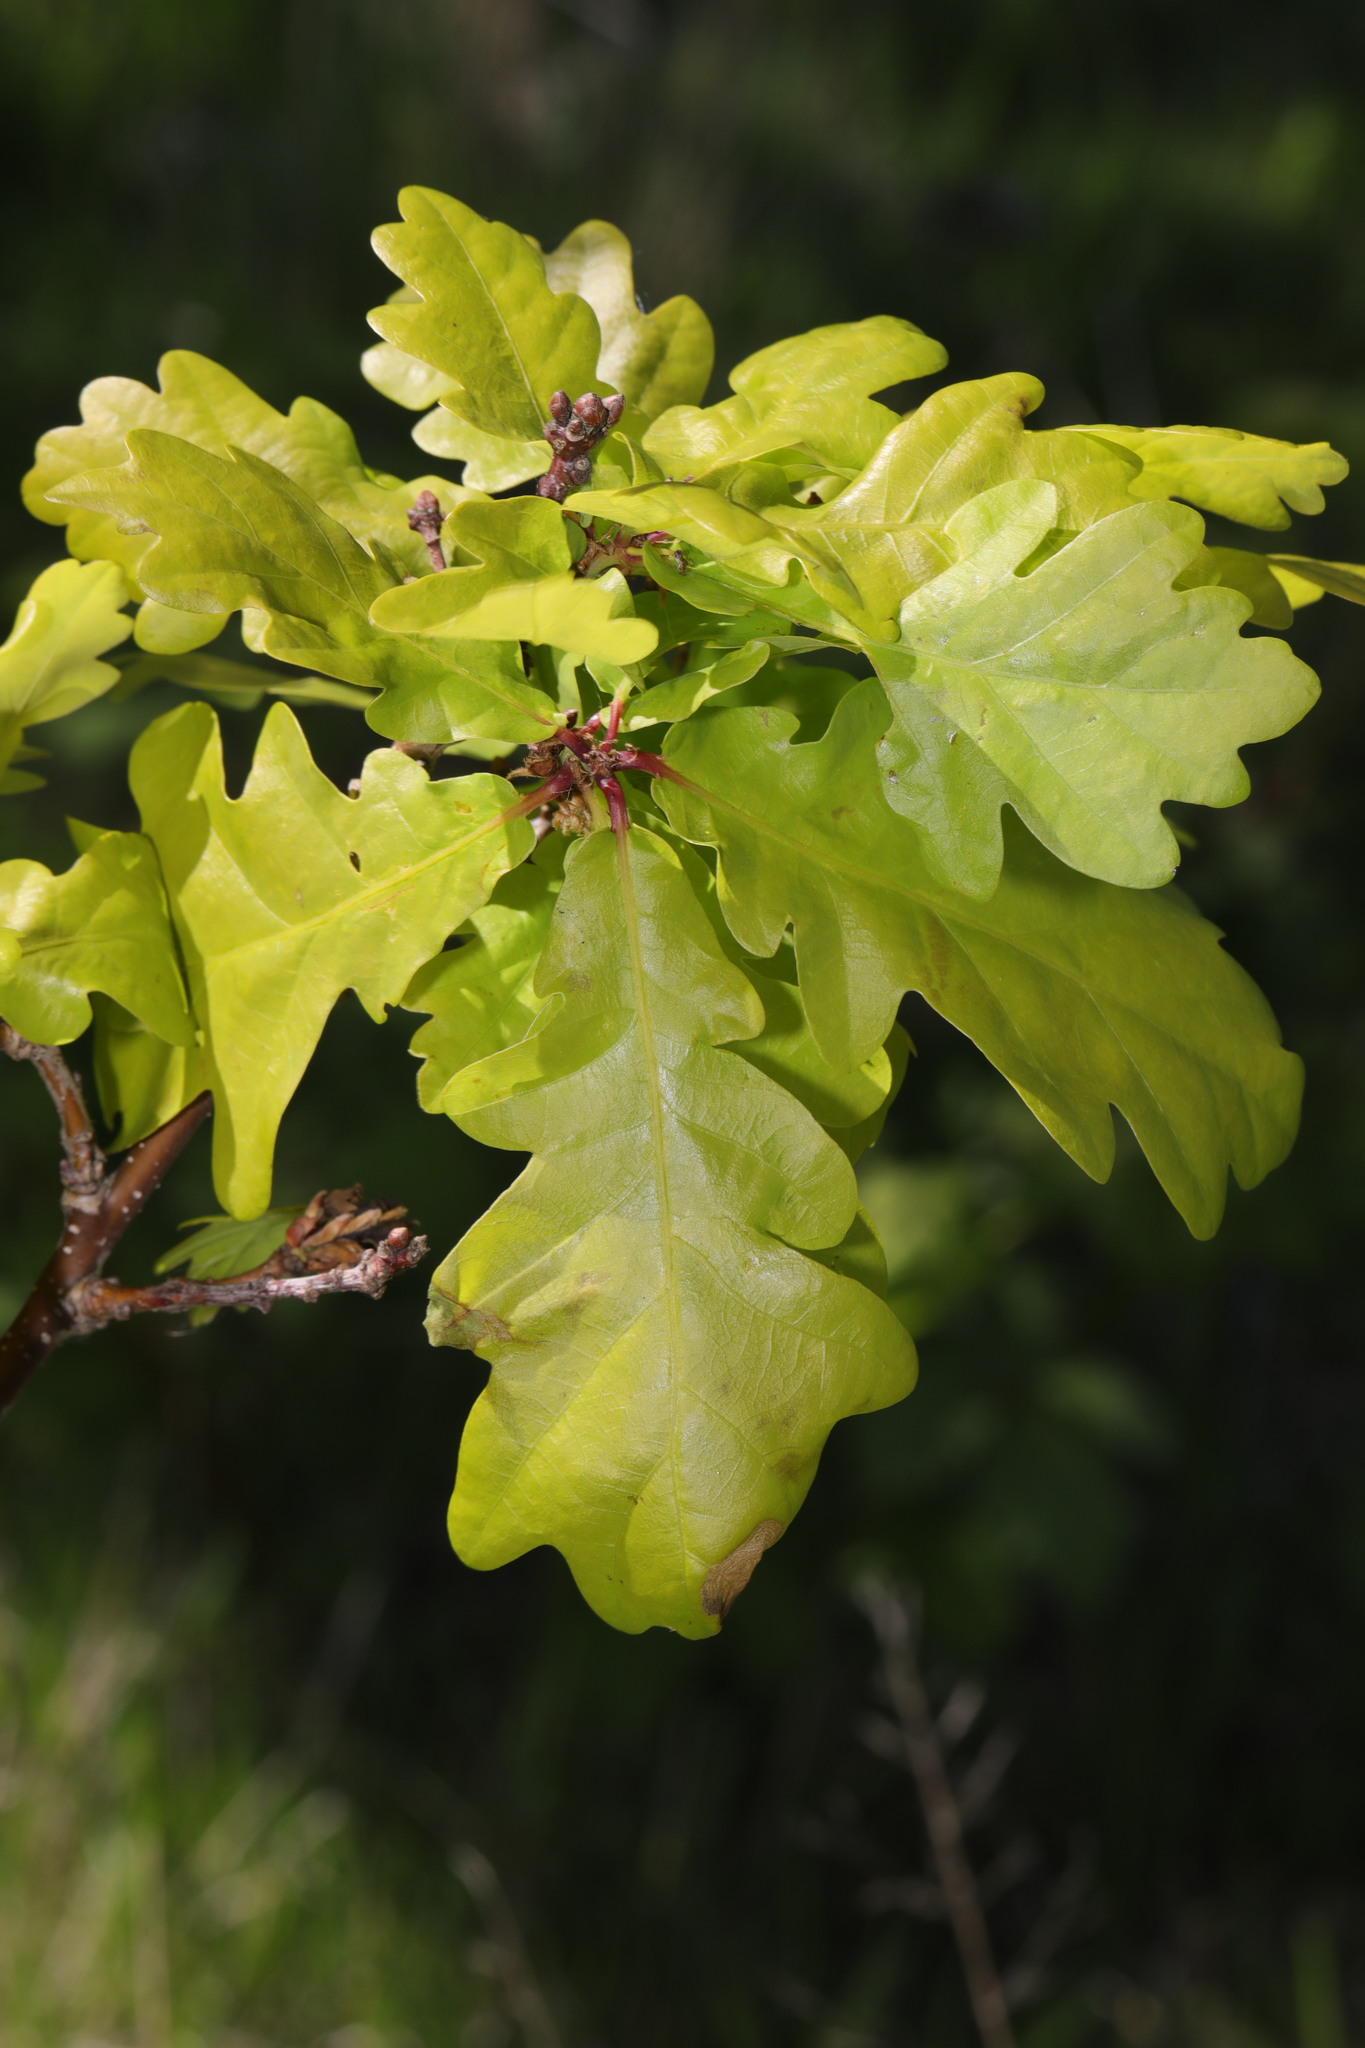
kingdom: Plantae
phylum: Tracheophyta
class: Magnoliopsida
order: Fagales
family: Fagaceae
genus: Quercus
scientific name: Quercus robur
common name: Pedunculate oak
